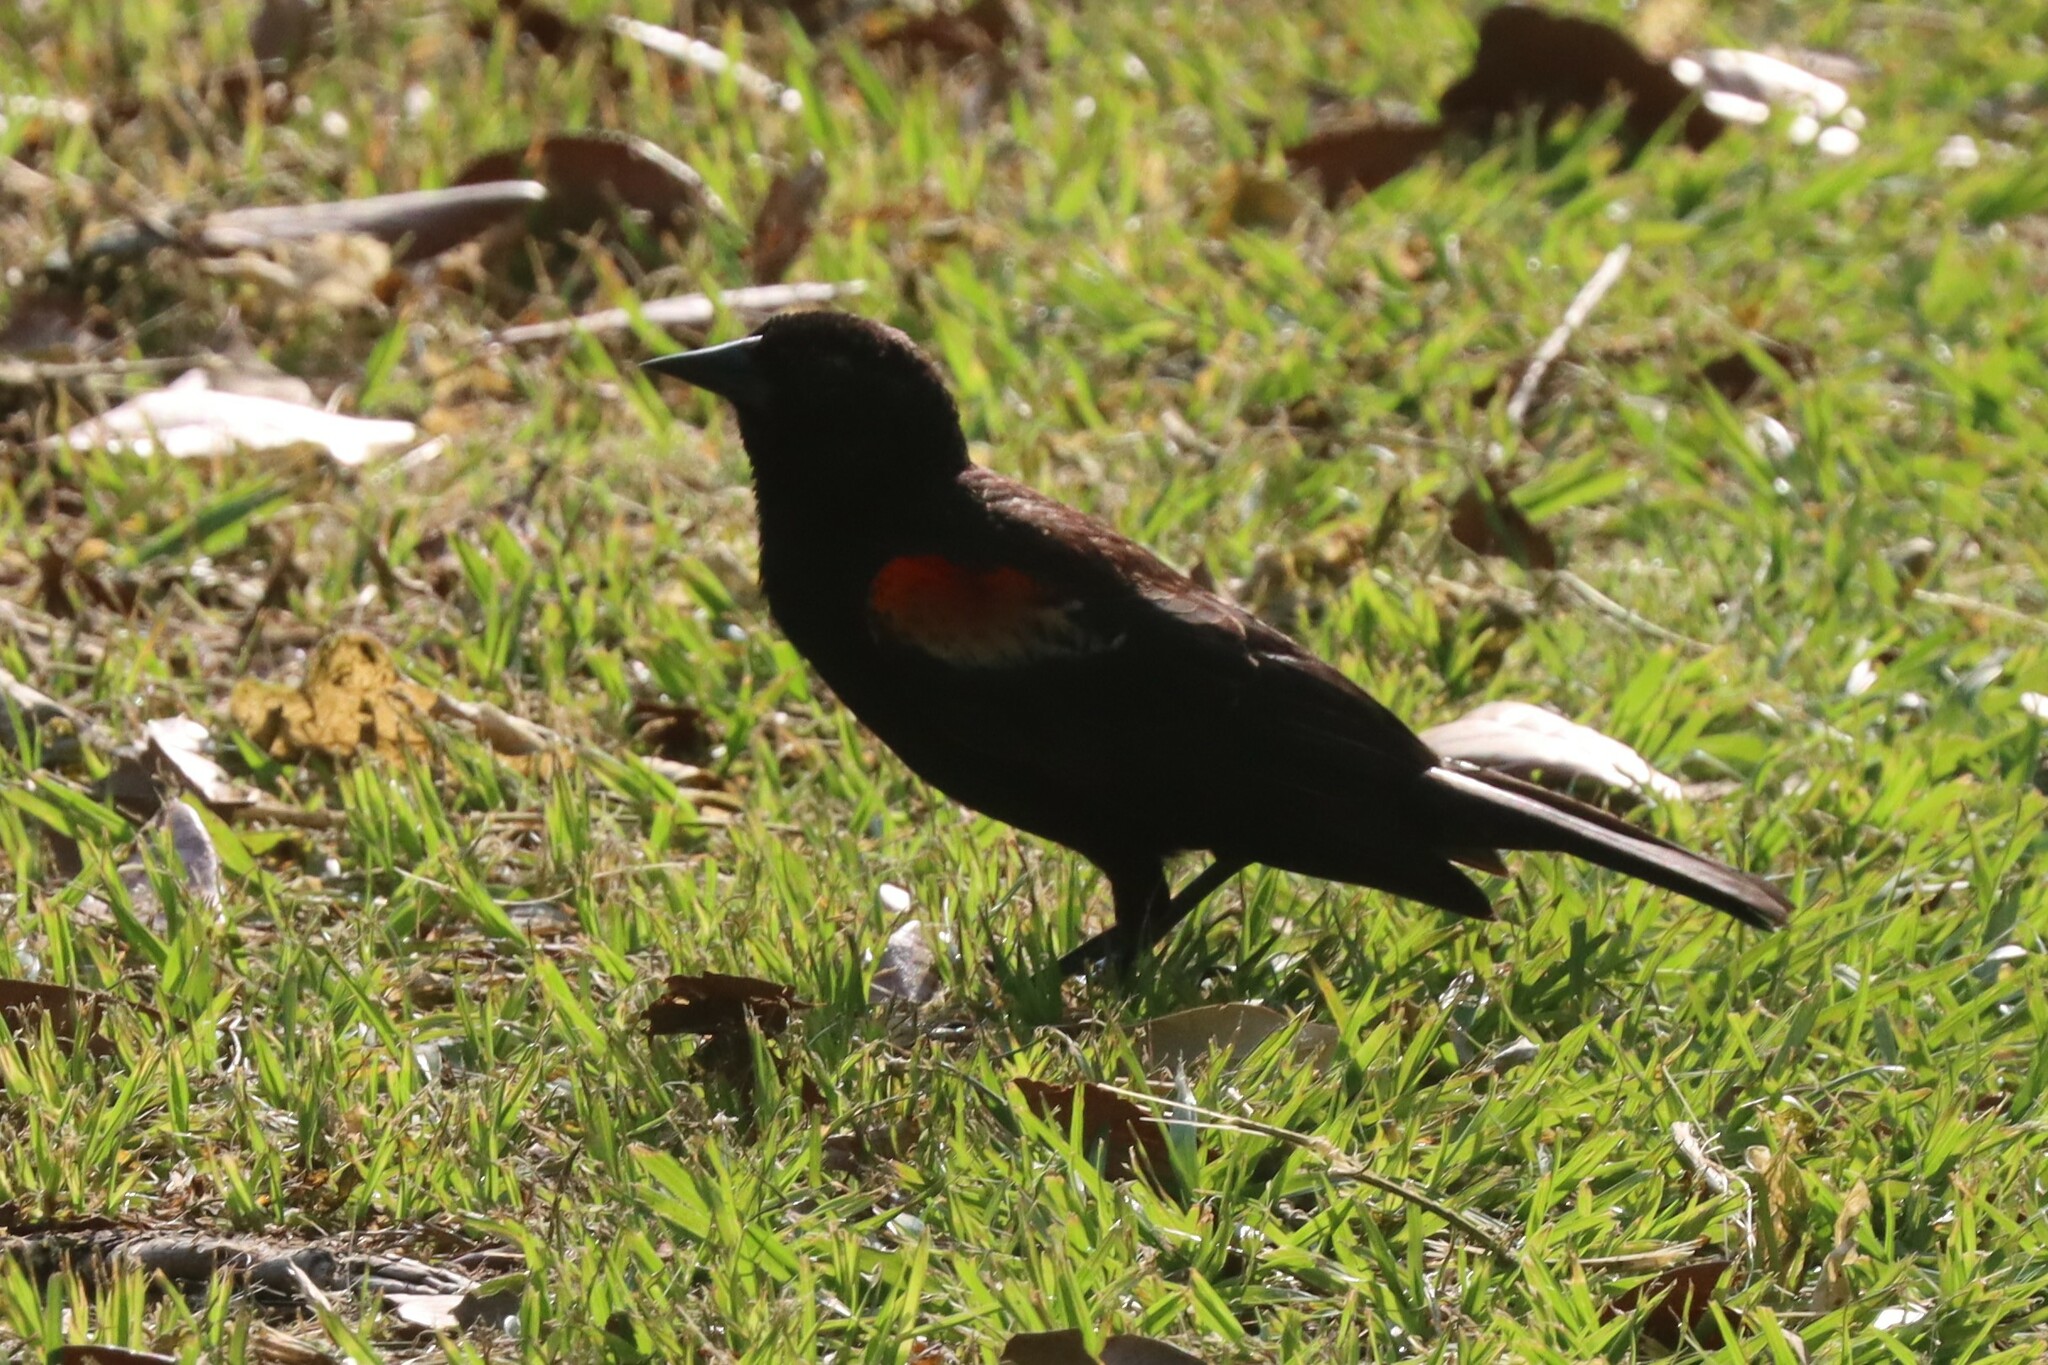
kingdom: Animalia
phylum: Chordata
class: Aves
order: Passeriformes
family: Icteridae
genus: Agelaius
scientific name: Agelaius phoeniceus
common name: Red-winged blackbird
